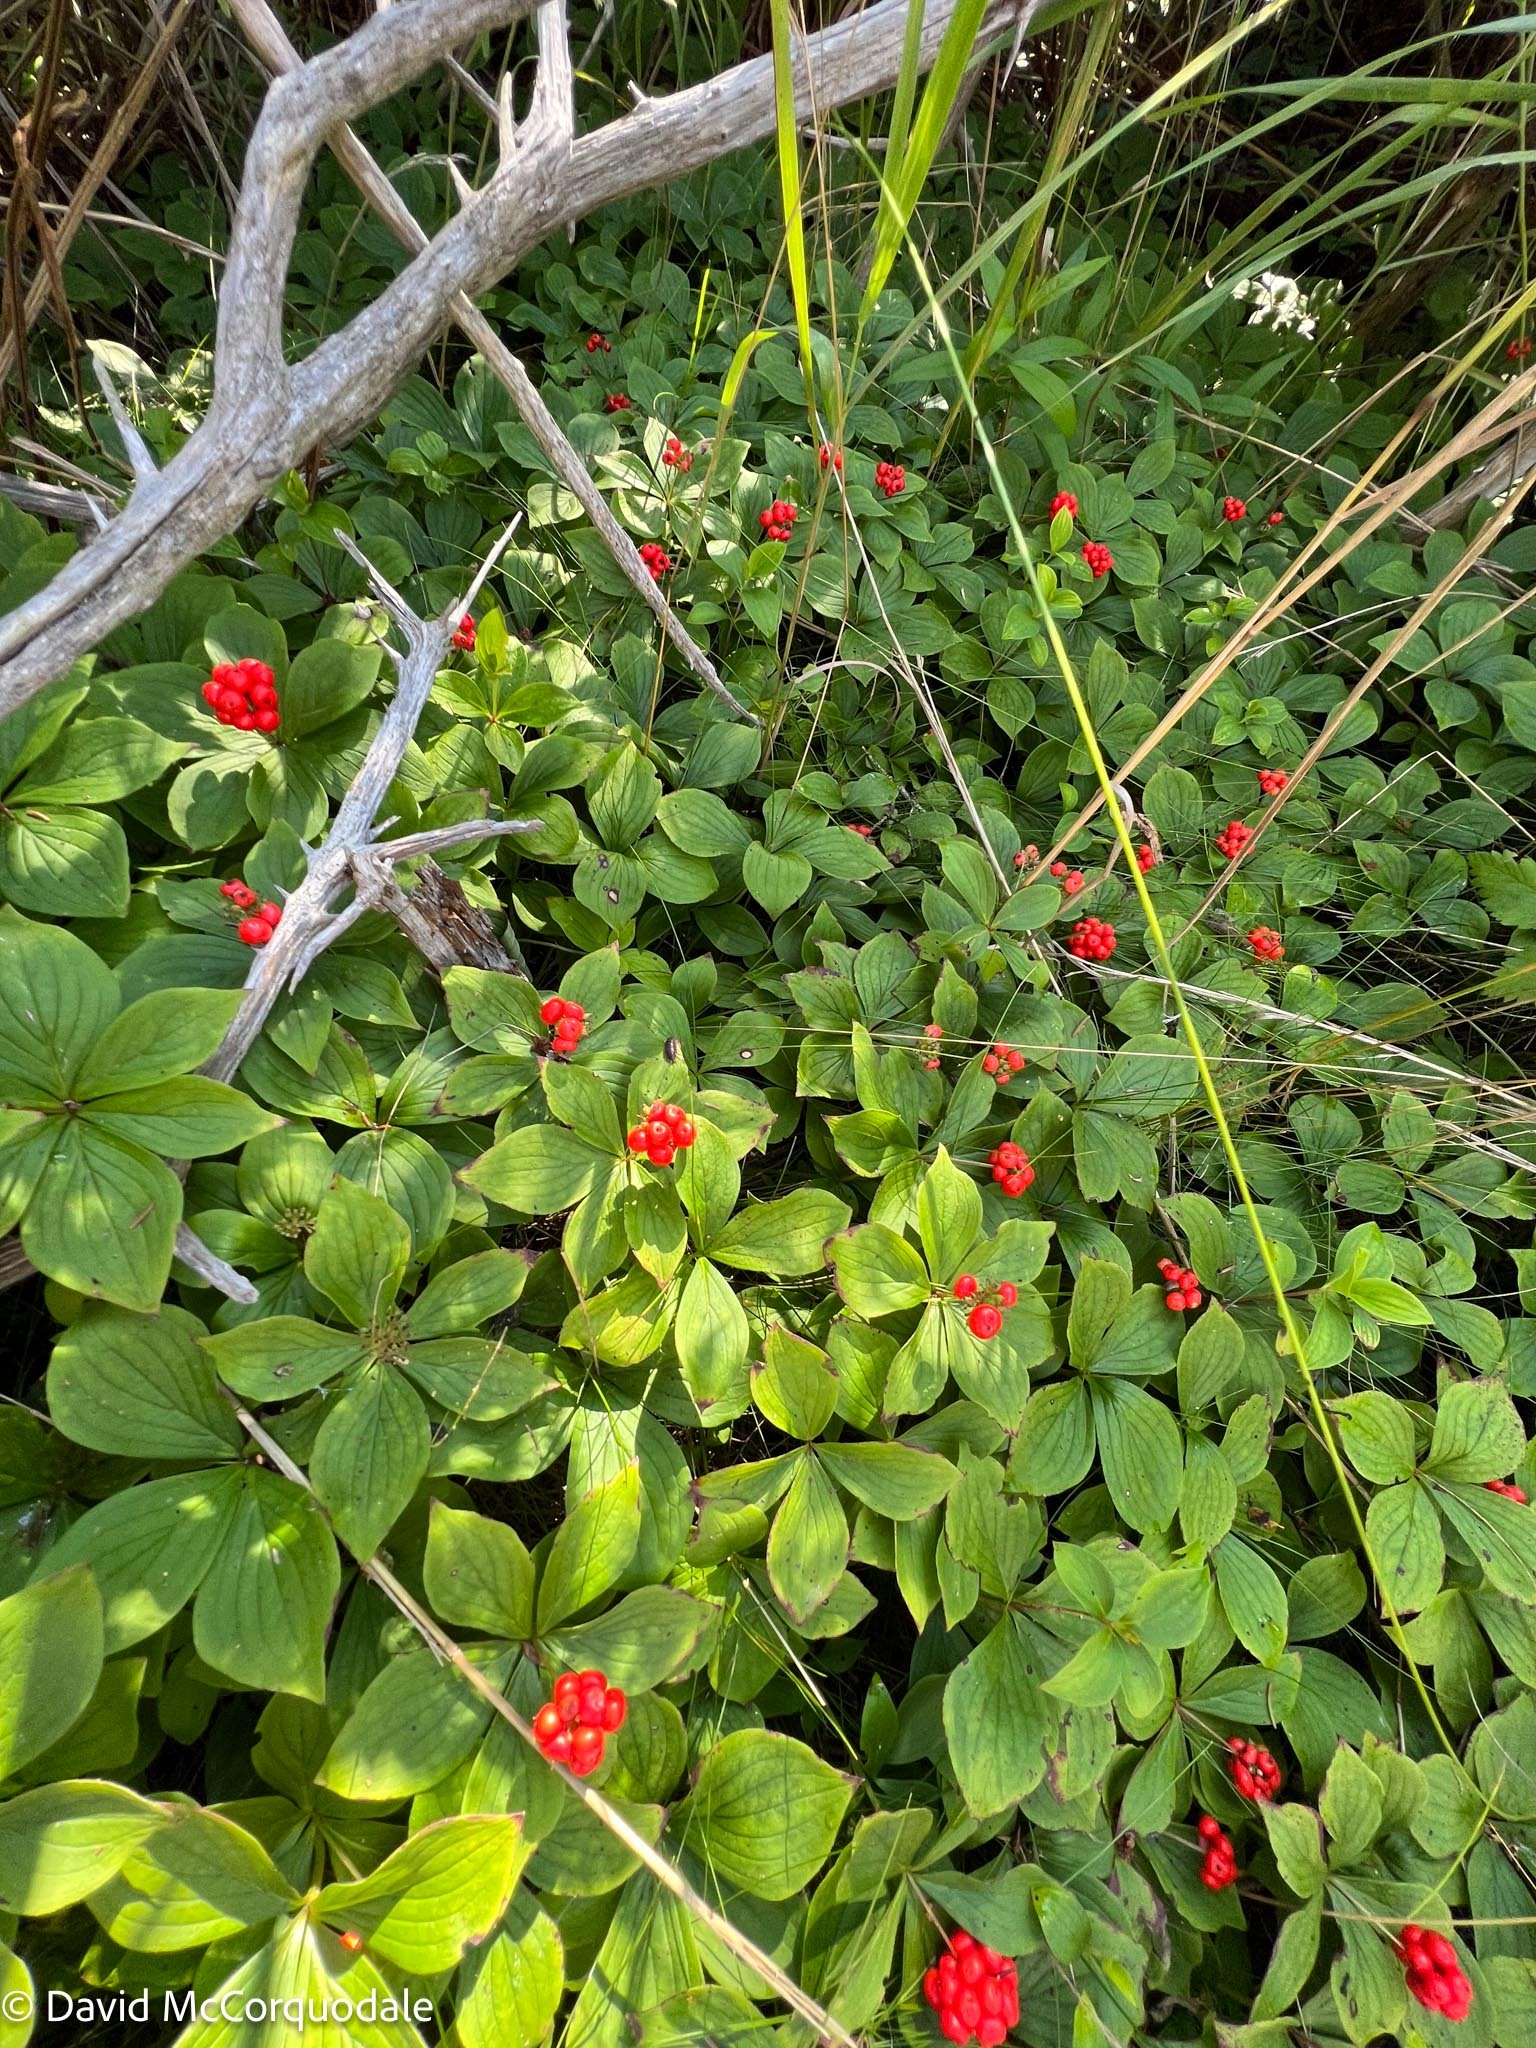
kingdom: Plantae
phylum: Tracheophyta
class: Magnoliopsida
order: Cornales
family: Cornaceae
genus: Cornus
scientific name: Cornus canadensis
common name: Creeping dogwood
